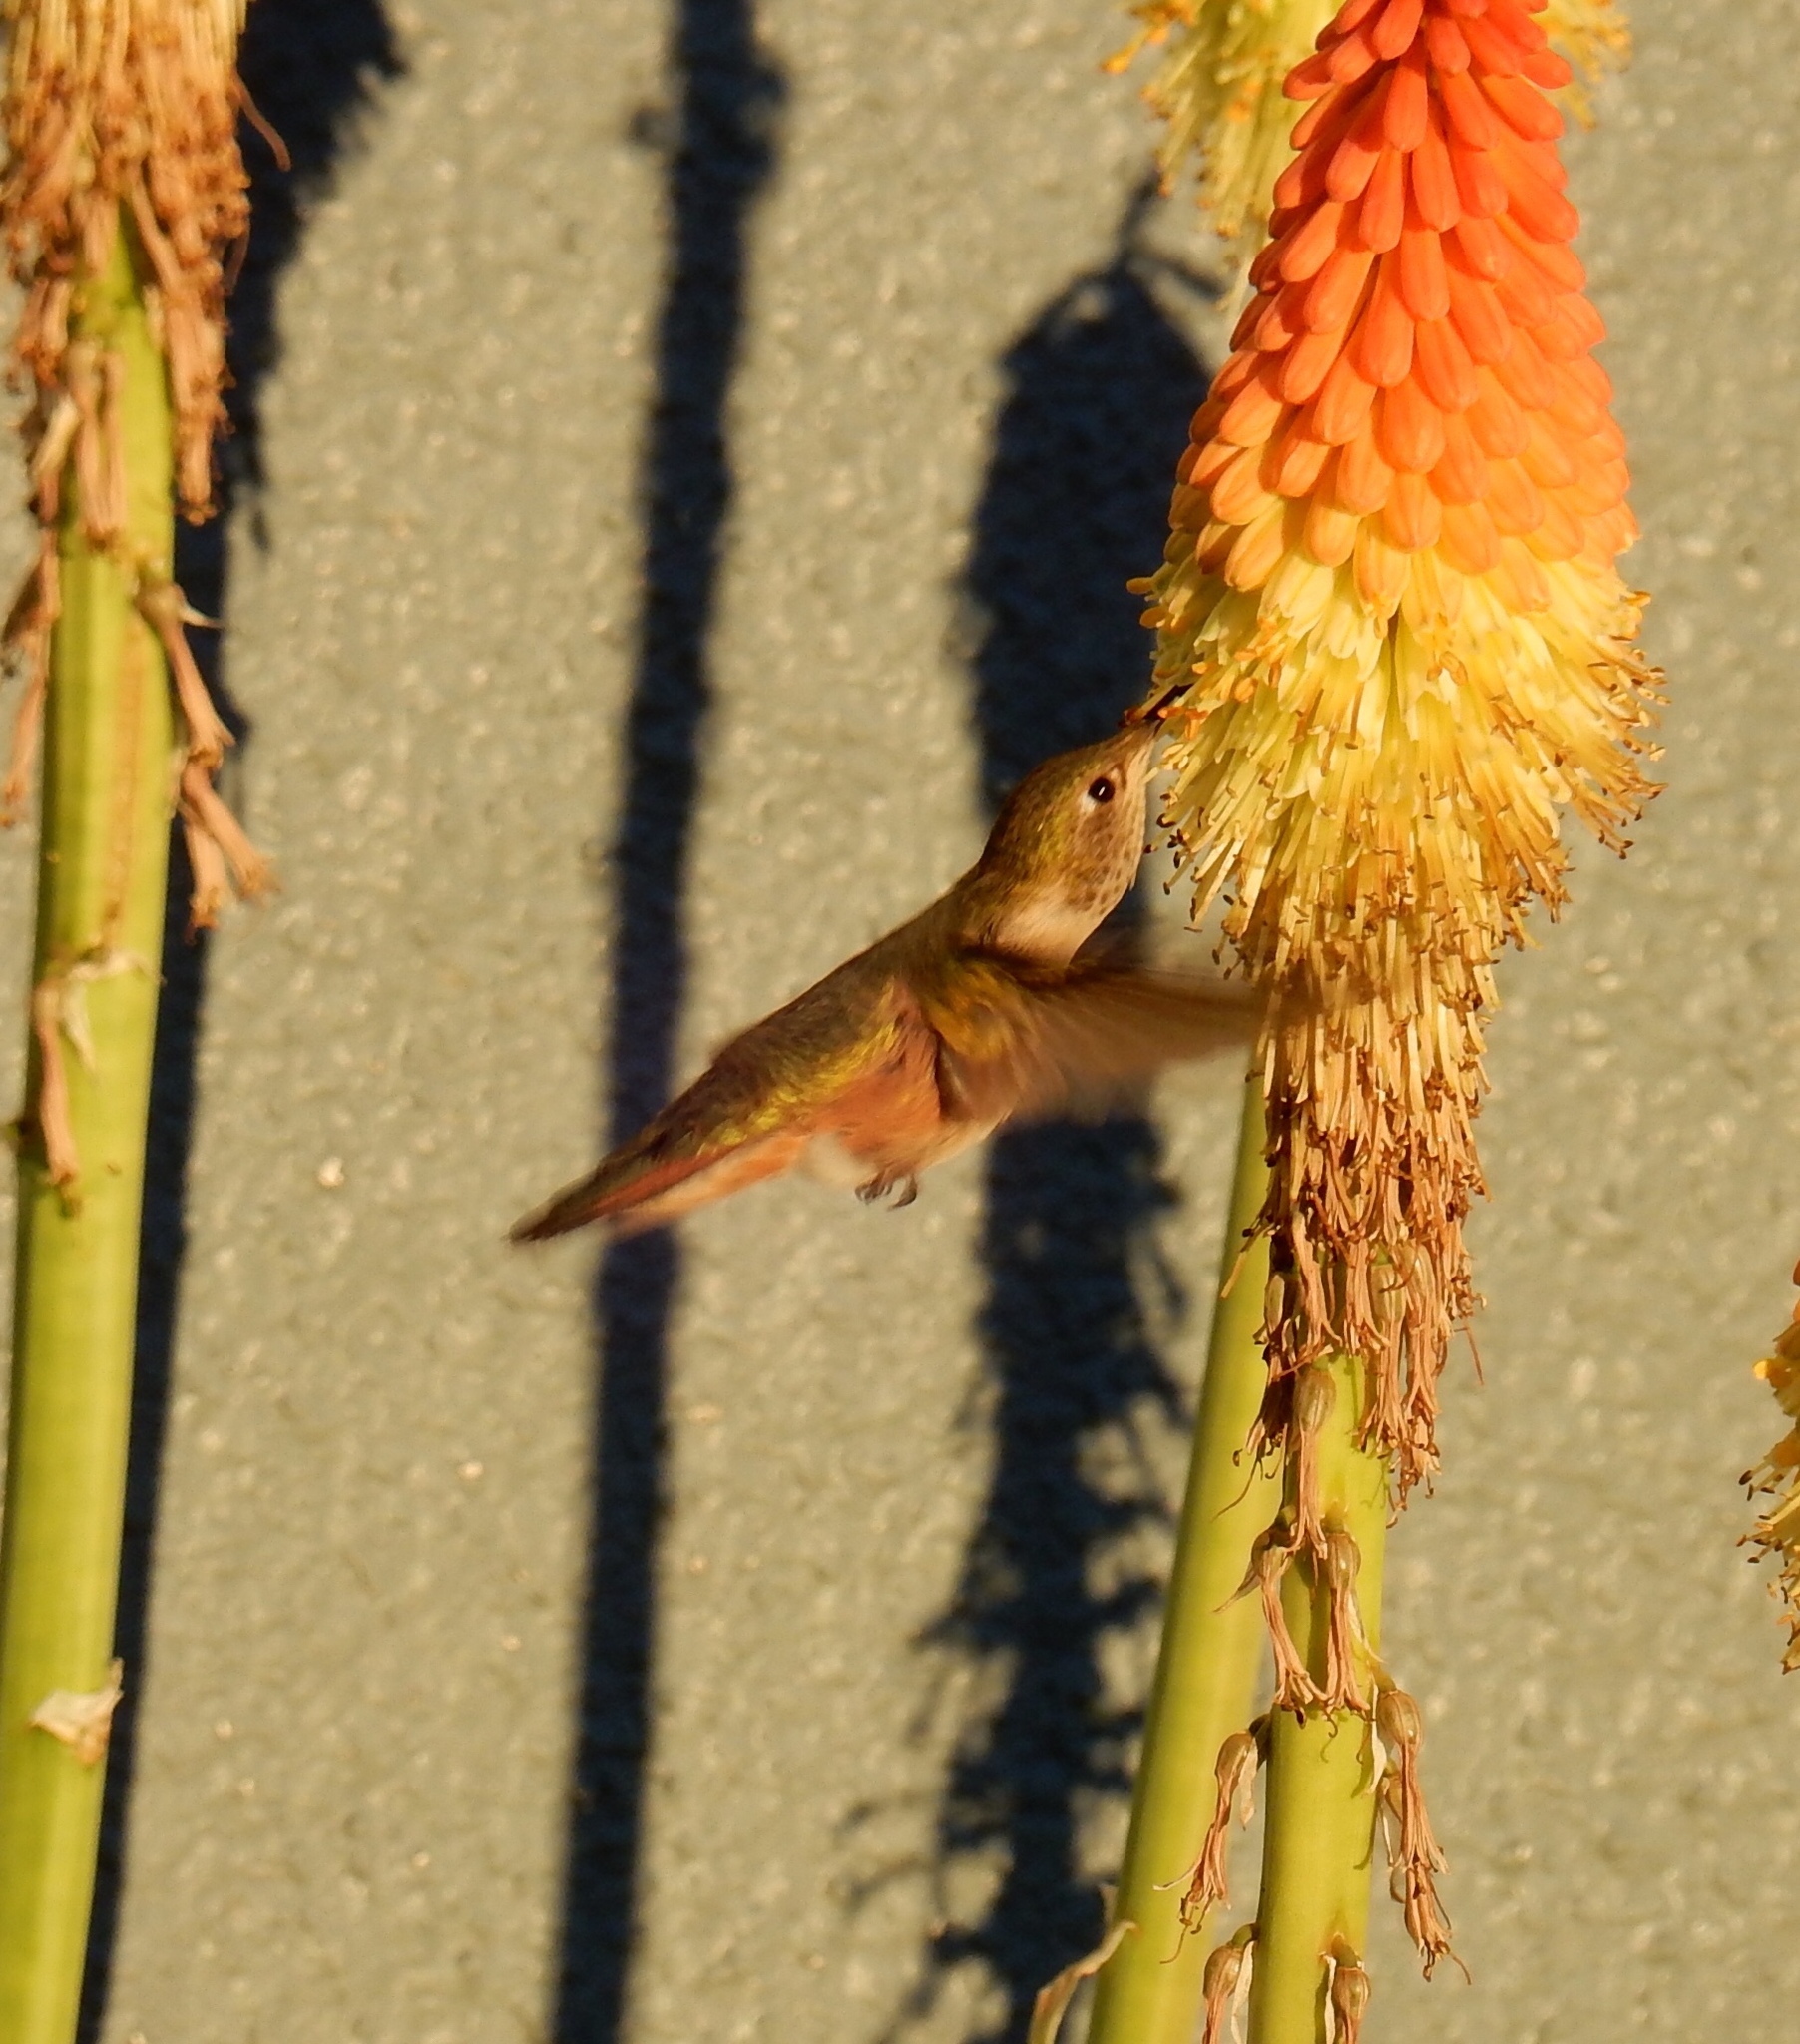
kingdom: Animalia
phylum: Chordata
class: Aves
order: Apodiformes
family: Trochilidae
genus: Selasphorus
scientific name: Selasphorus platycercus
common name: Broad-tailed hummingbird
